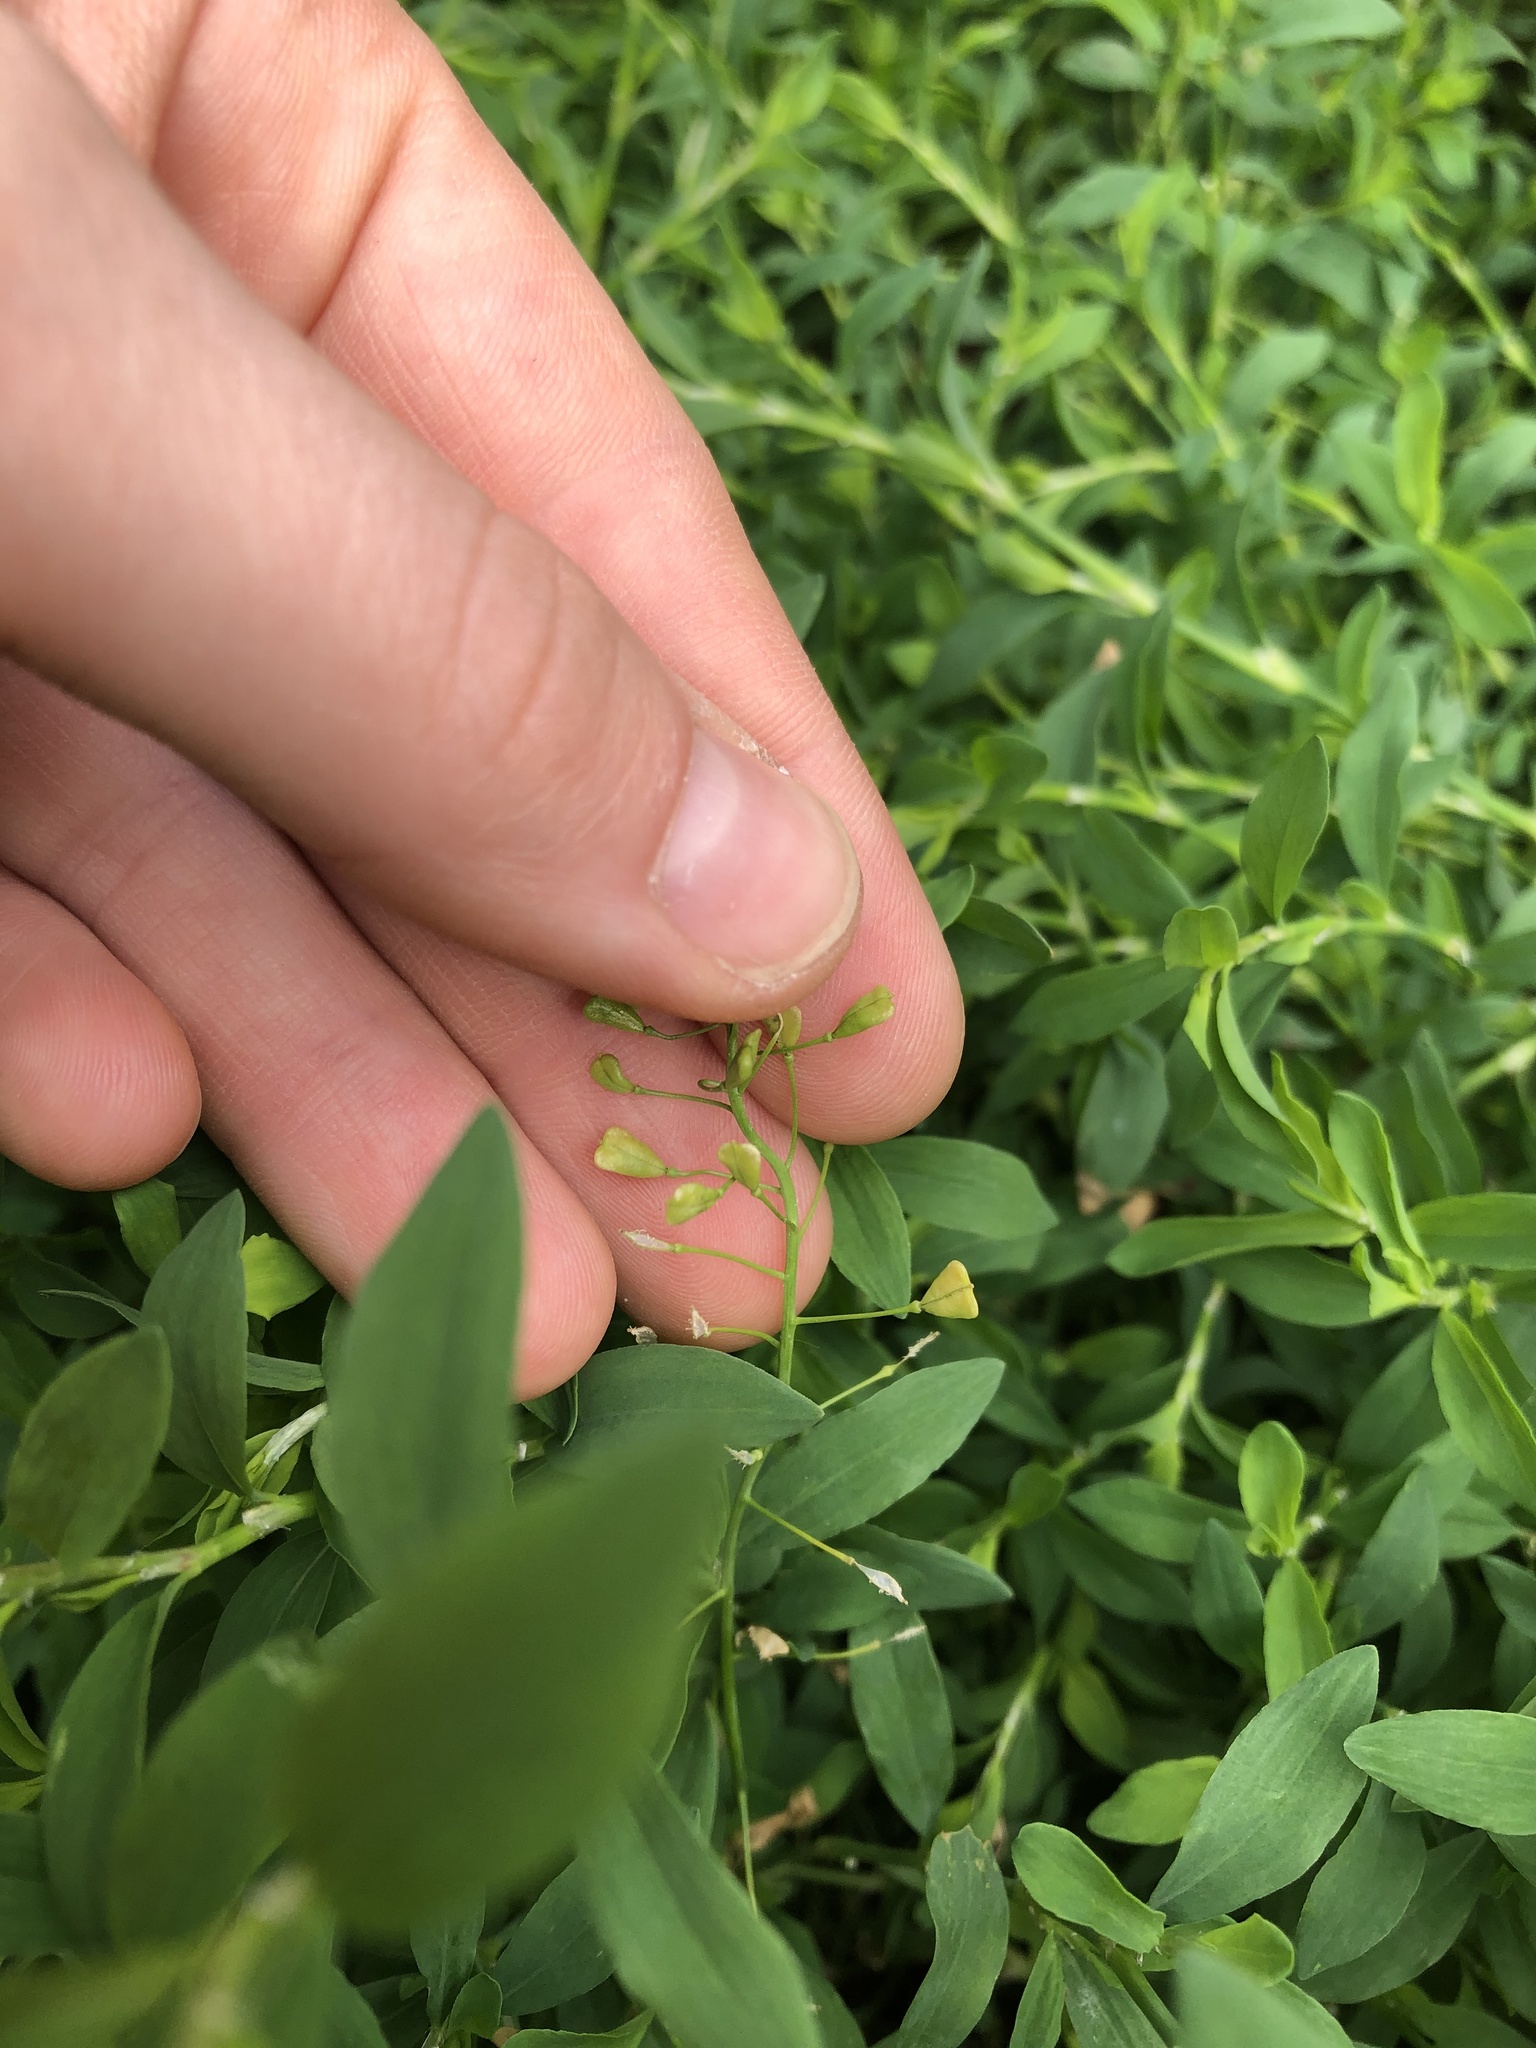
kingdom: Plantae
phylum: Tracheophyta
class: Magnoliopsida
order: Brassicales
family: Brassicaceae
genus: Capsella
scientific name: Capsella bursa-pastoris
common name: Shepherd's purse
